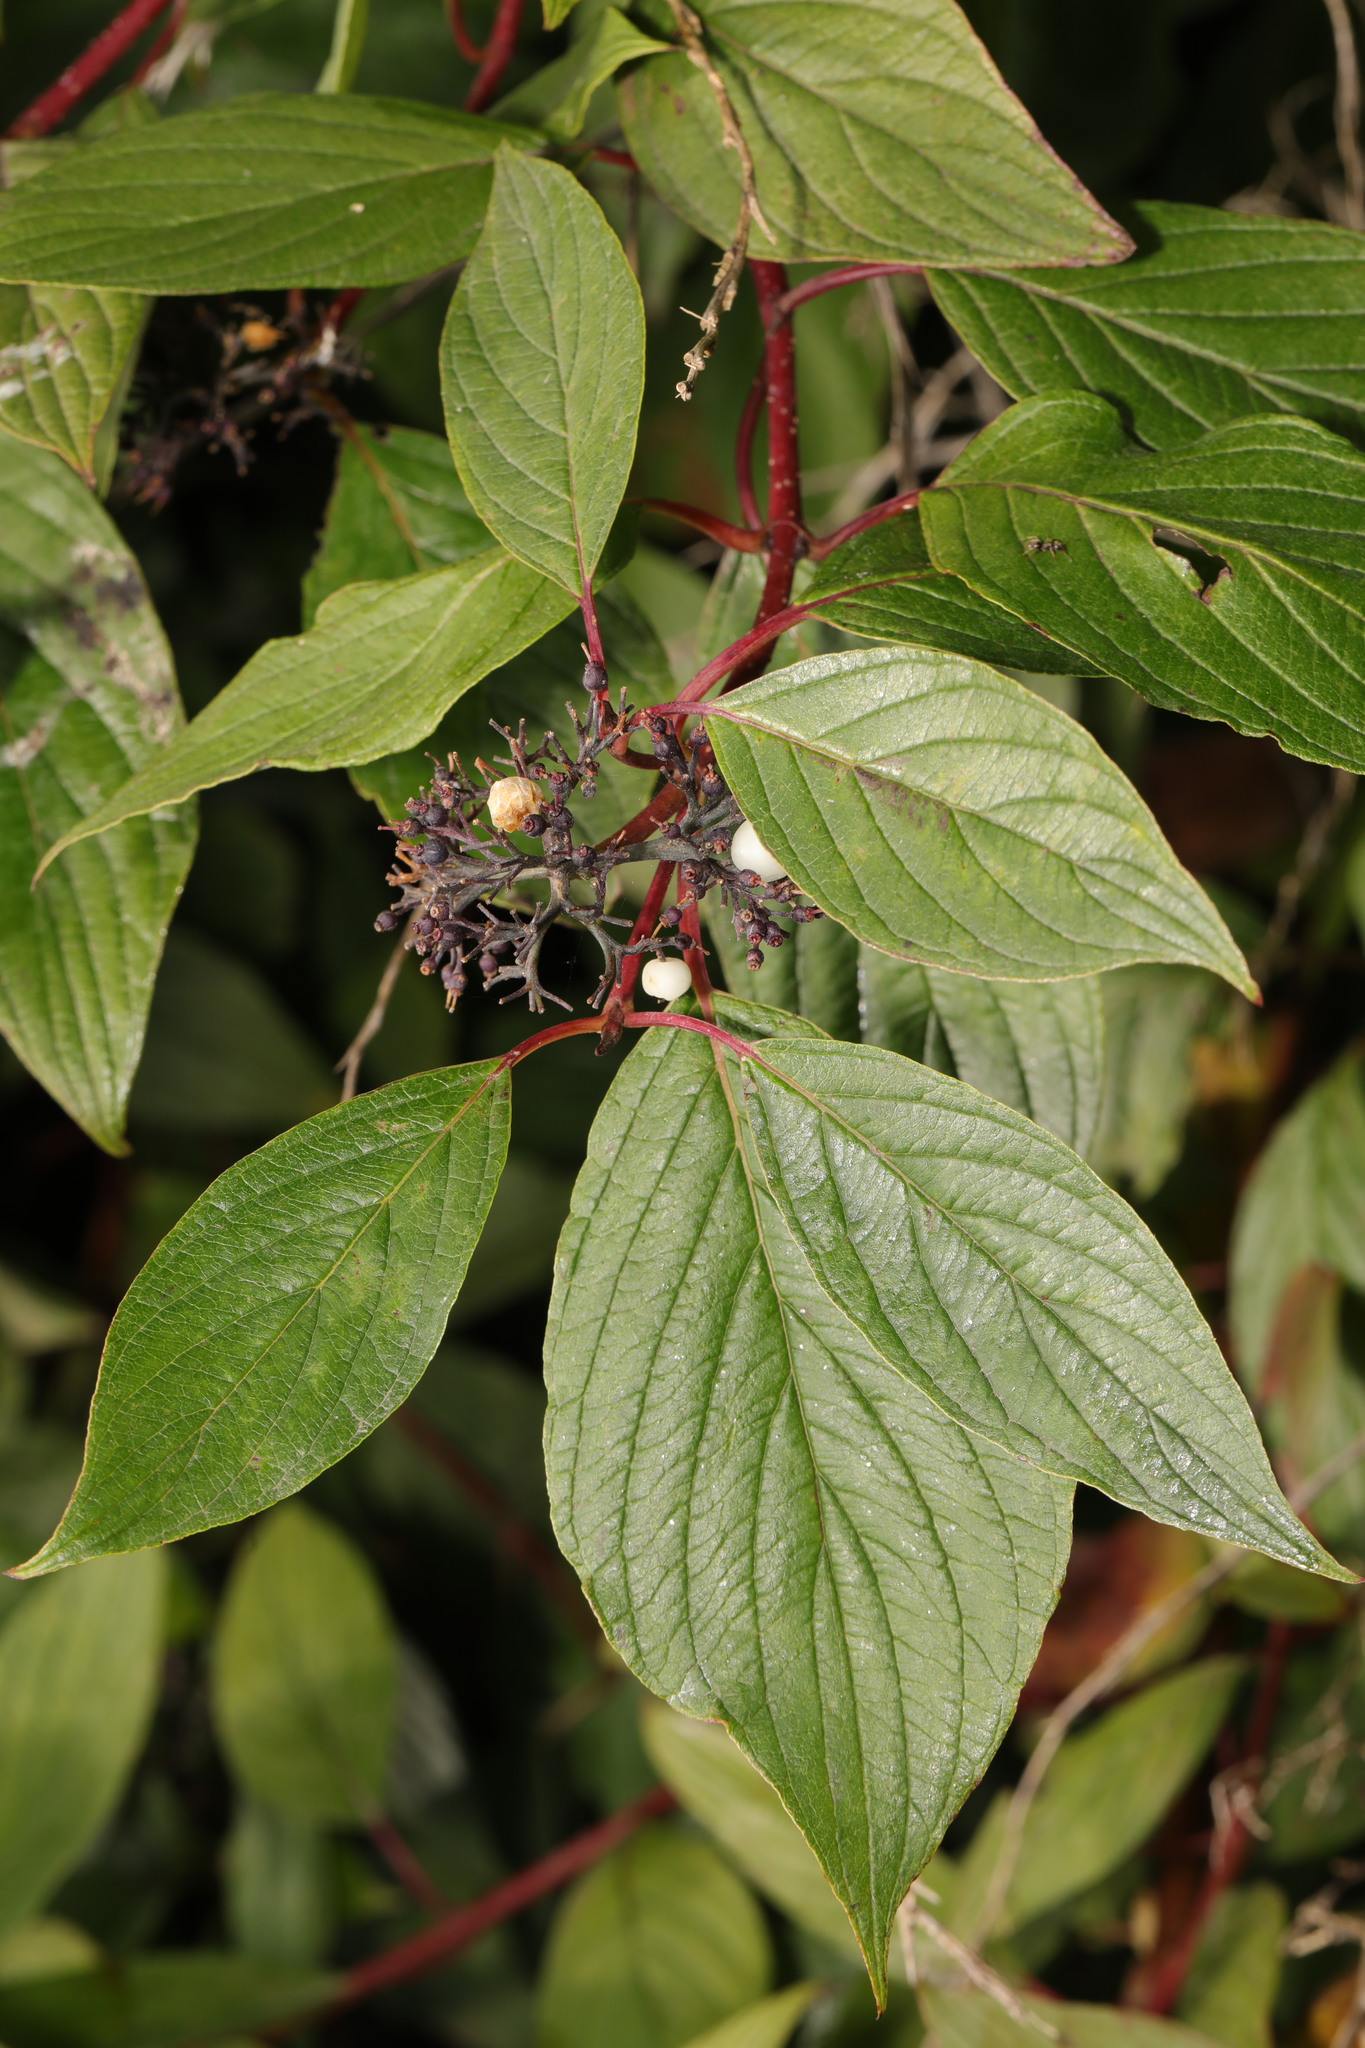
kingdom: Plantae
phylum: Tracheophyta
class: Magnoliopsida
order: Cornales
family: Cornaceae
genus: Cornus
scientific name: Cornus alba
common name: White dogwood
